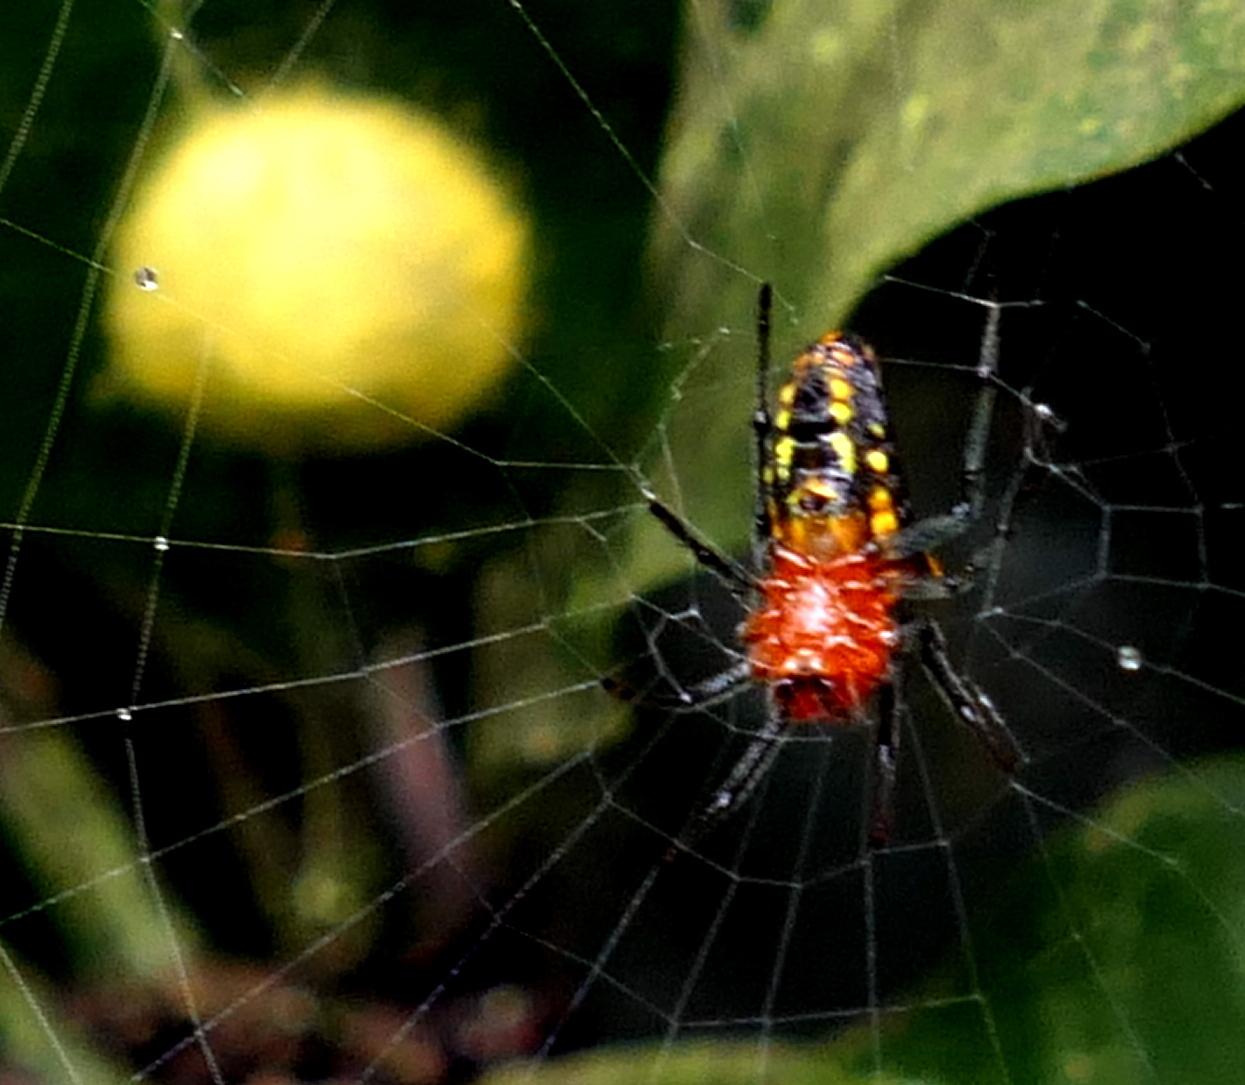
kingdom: Animalia
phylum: Arthropoda
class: Arachnida
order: Araneae
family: Araneidae
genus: Alpaida
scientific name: Alpaida bicornuta
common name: Orb weavers
